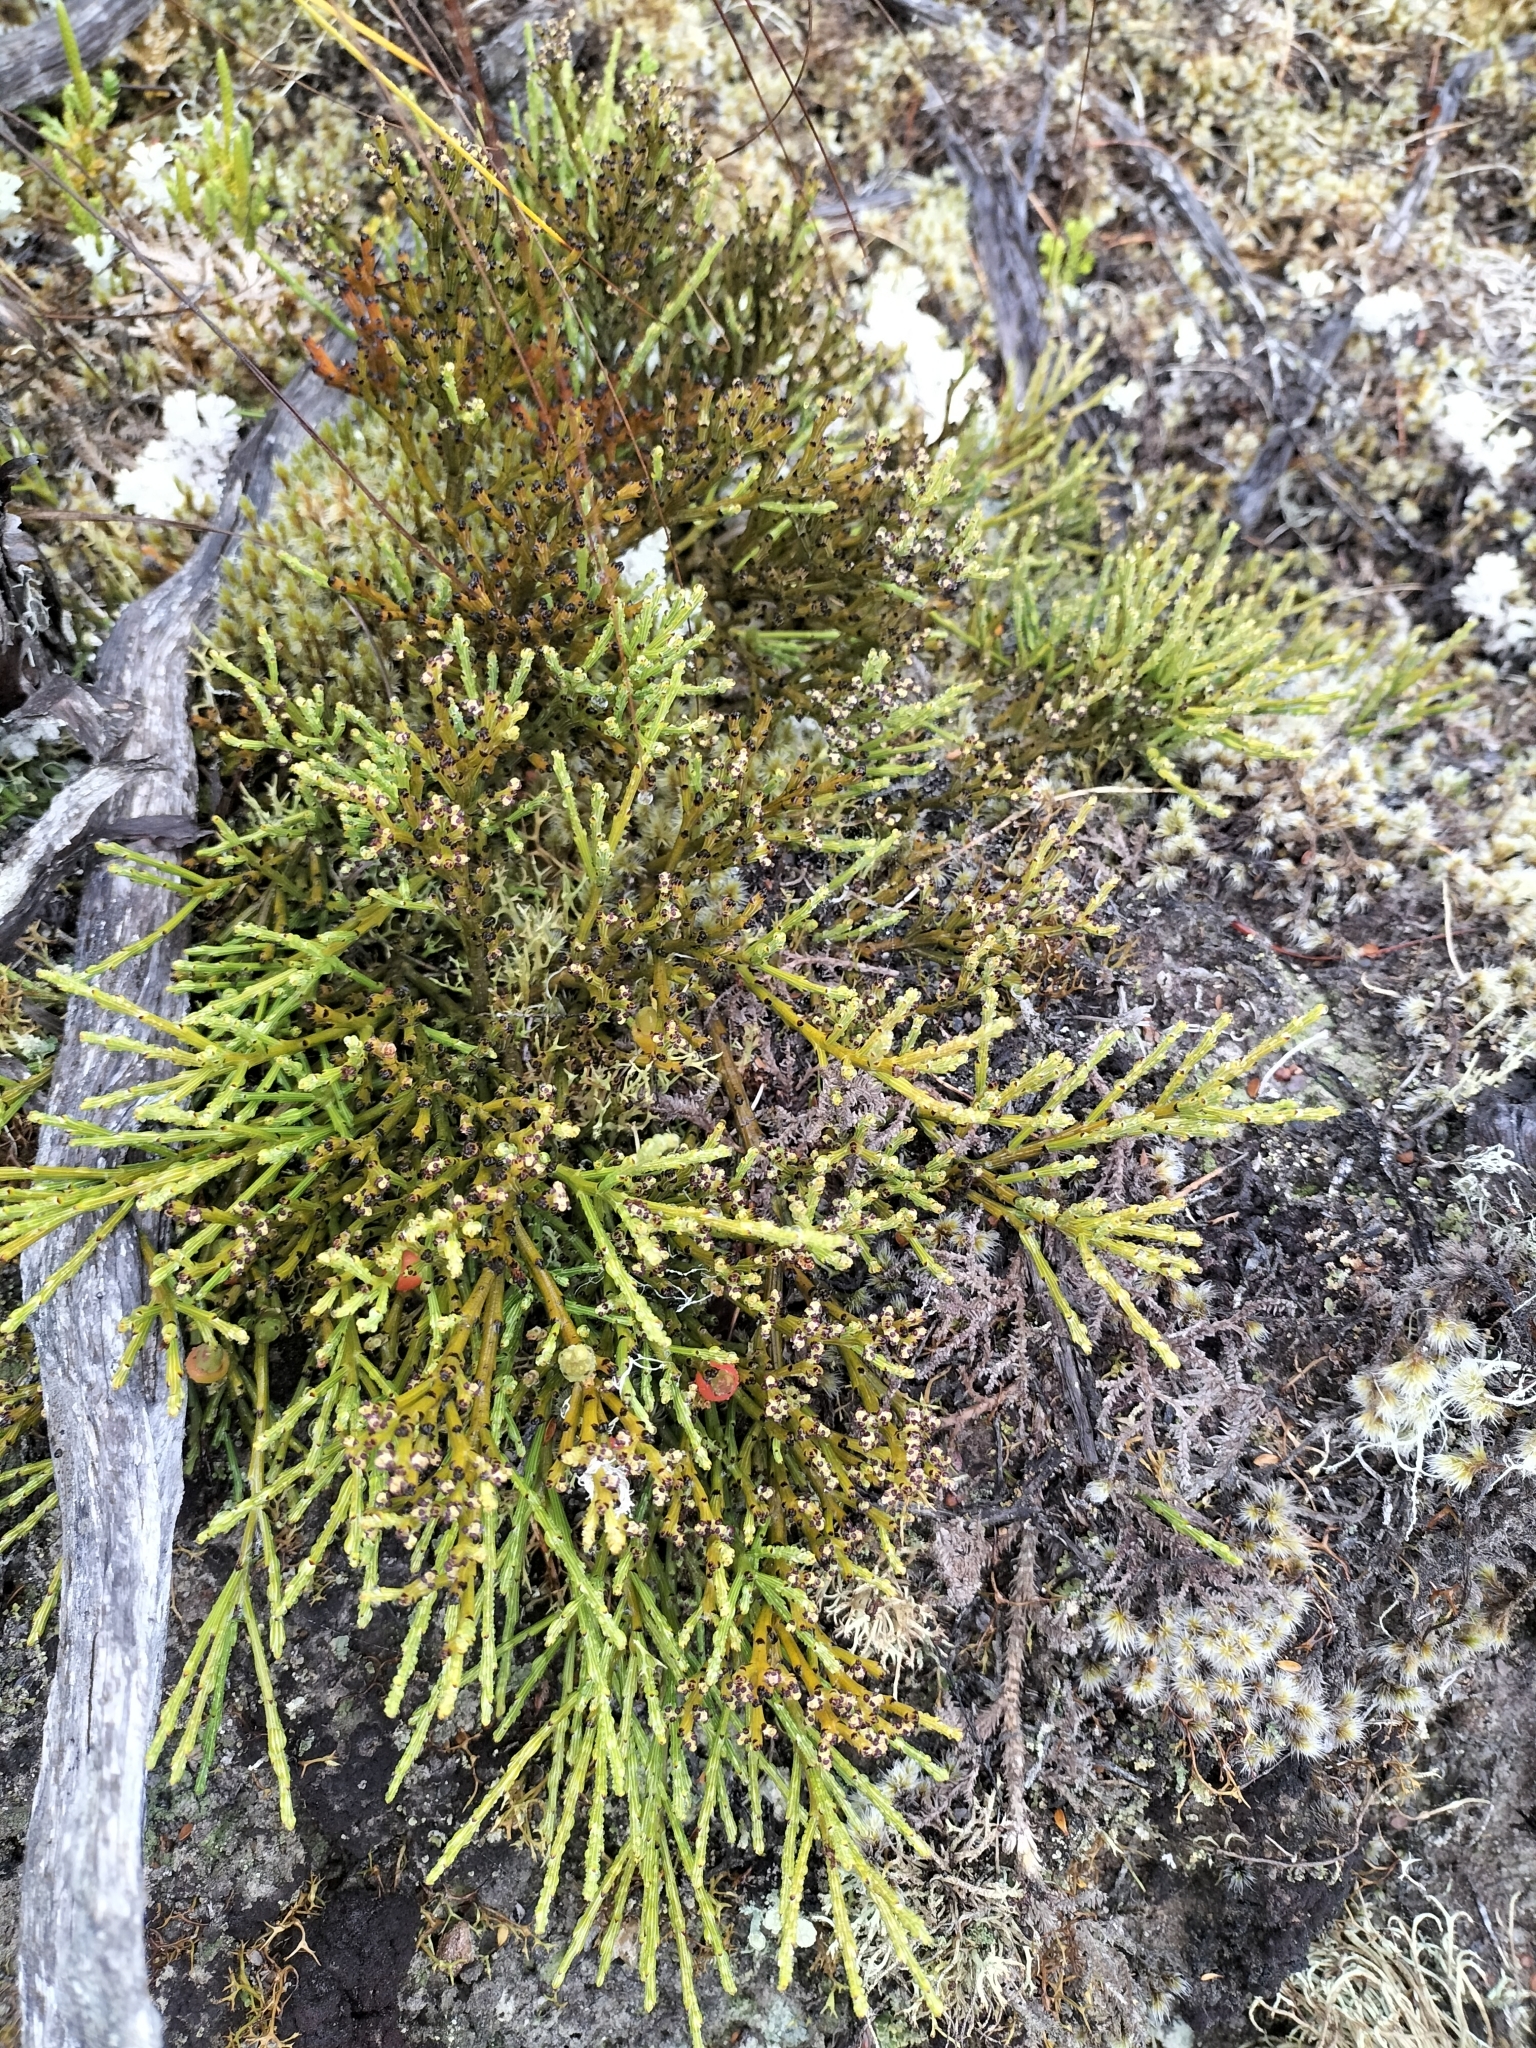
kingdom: Plantae
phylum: Tracheophyta
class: Magnoliopsida
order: Santalales
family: Santalaceae
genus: Exocarpos
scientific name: Exocarpos bidwillii
